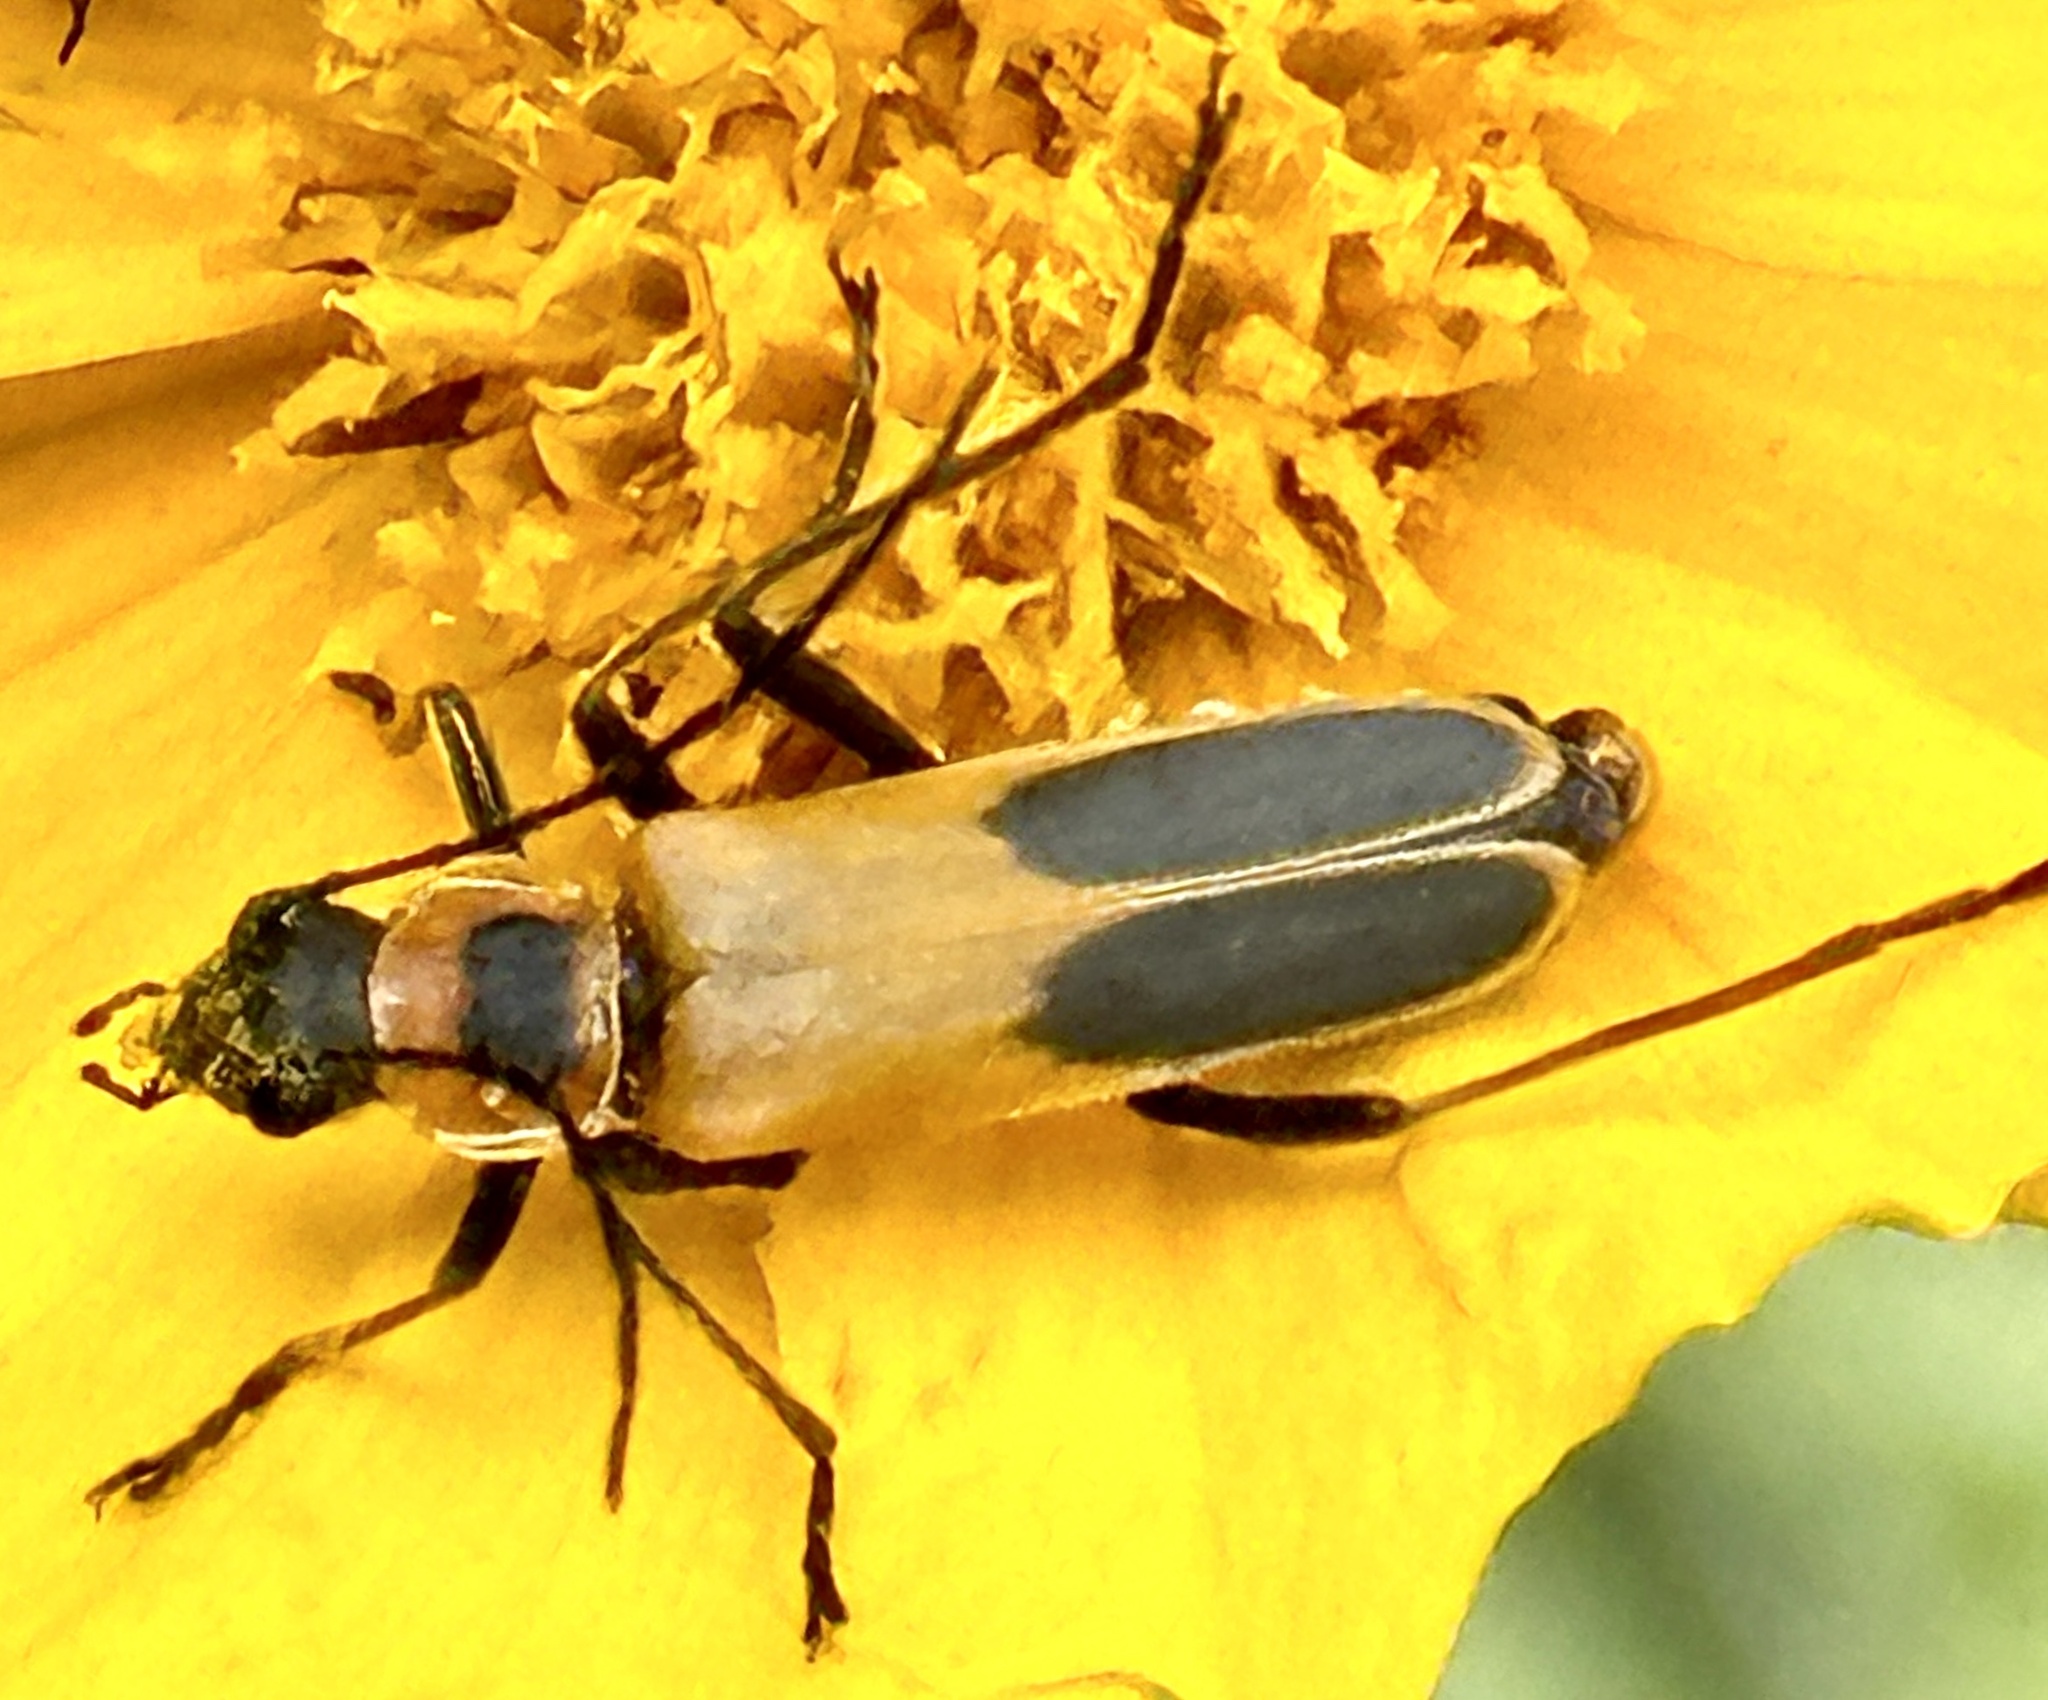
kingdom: Animalia
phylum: Arthropoda
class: Insecta
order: Coleoptera
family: Cantharidae
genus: Chauliognathus
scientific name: Chauliognathus pensylvanicus
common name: Goldenrod soldier beetle
